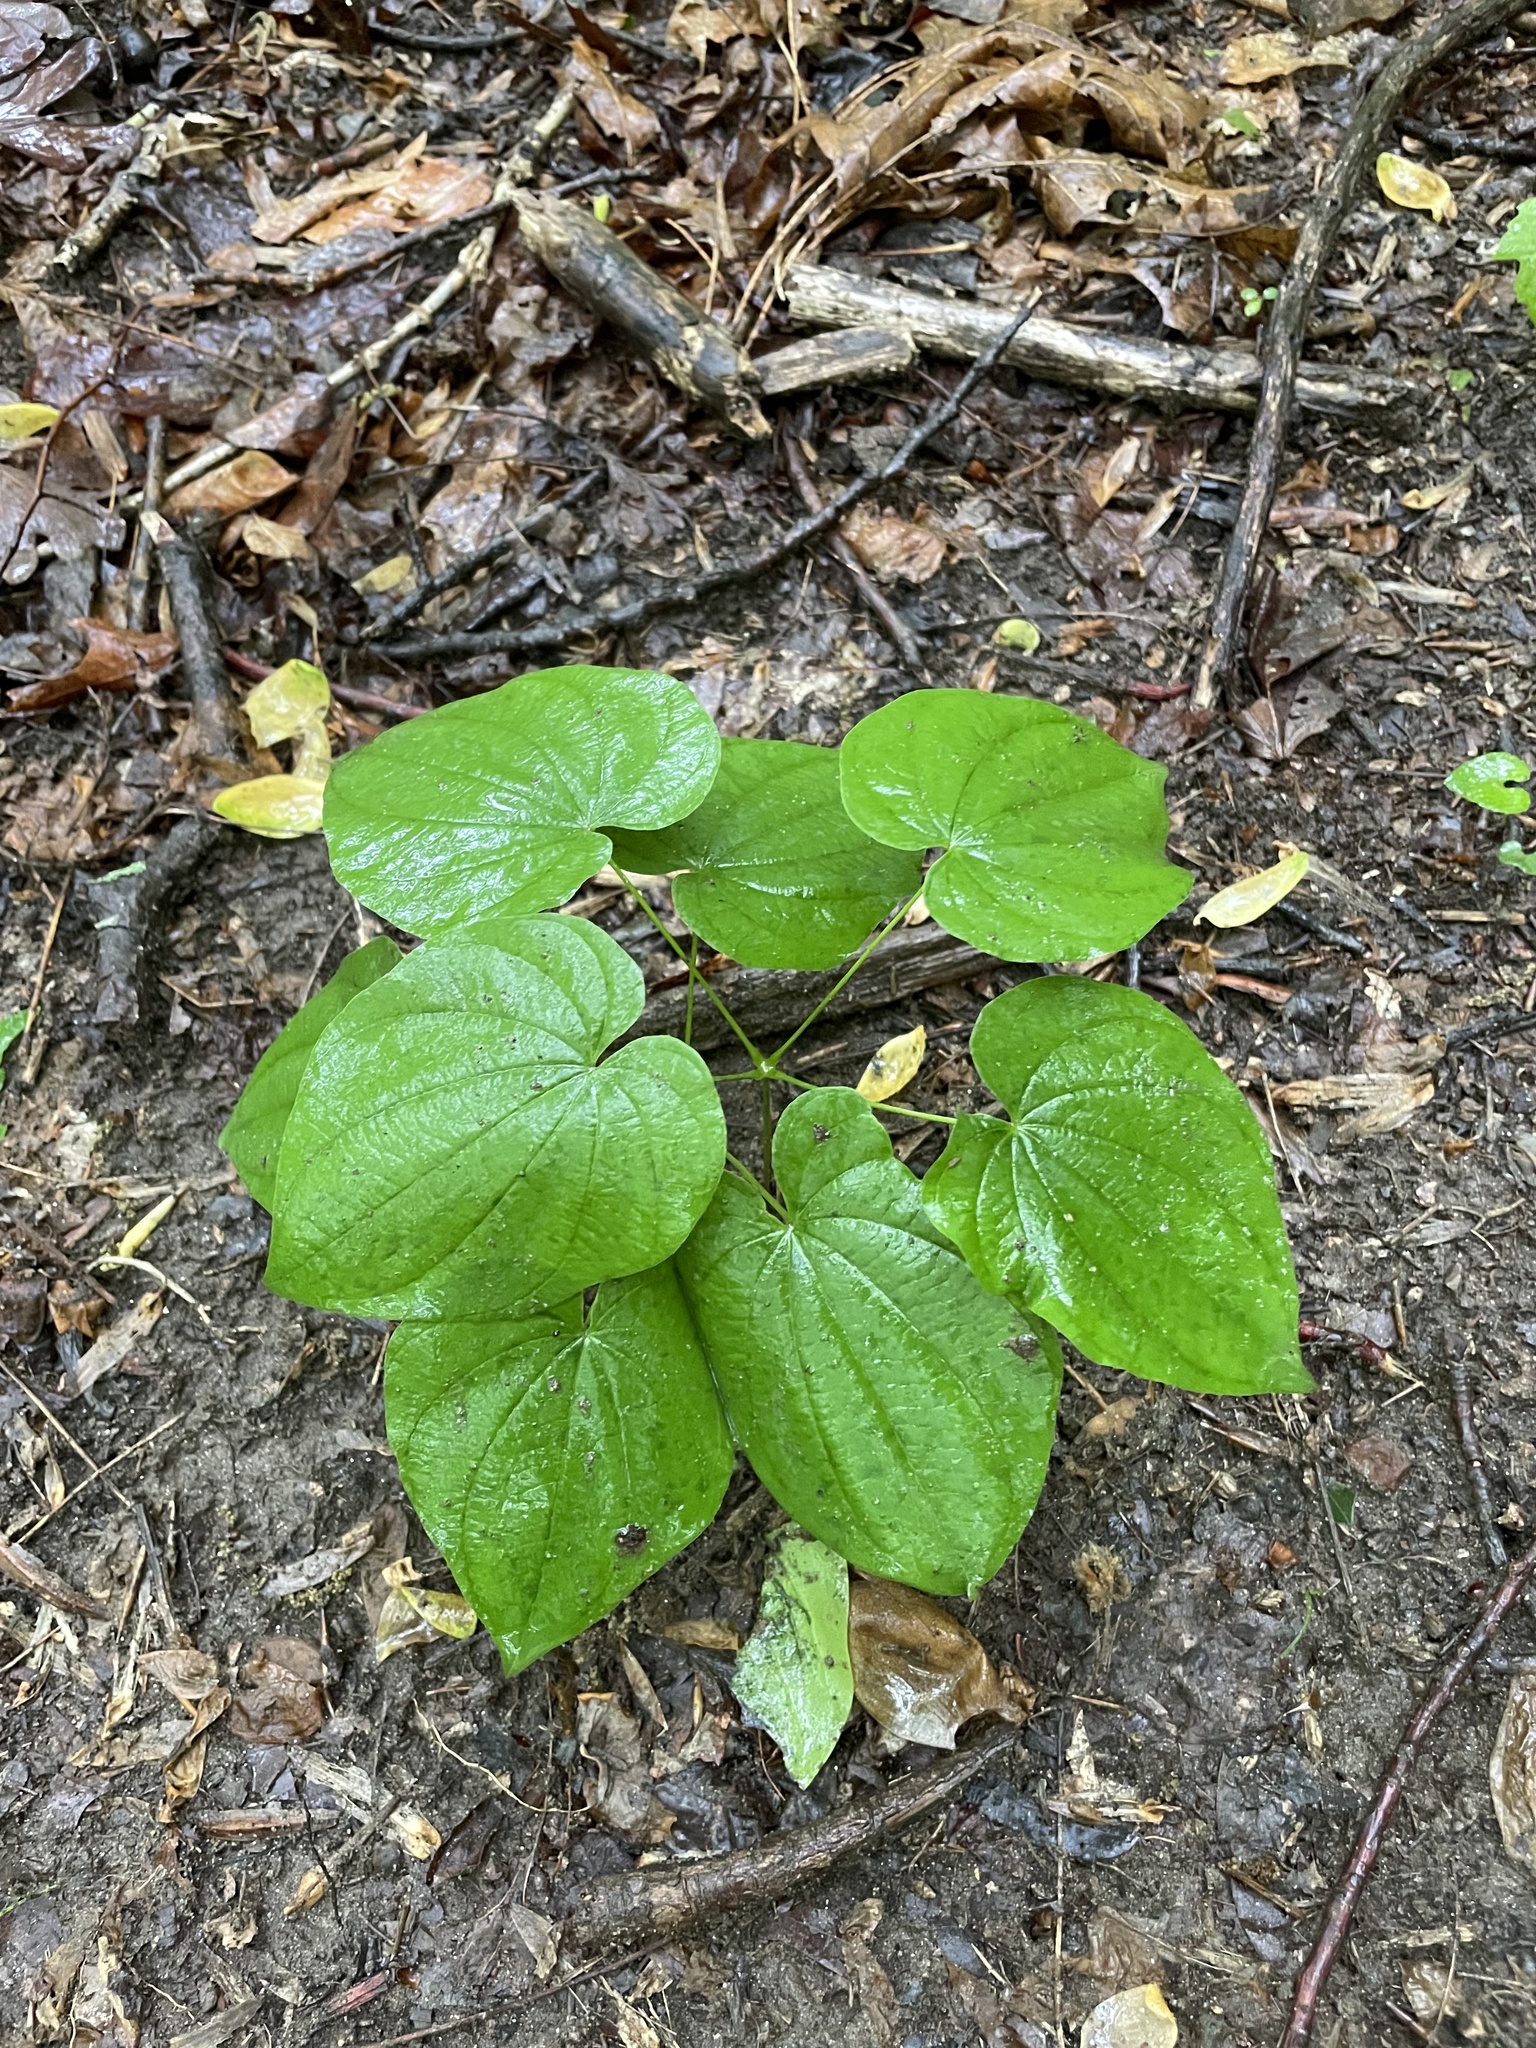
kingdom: Plantae
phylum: Tracheophyta
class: Liliopsida
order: Dioscoreales
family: Dioscoreaceae
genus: Dioscorea
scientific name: Dioscorea villosa
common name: Wild yam
